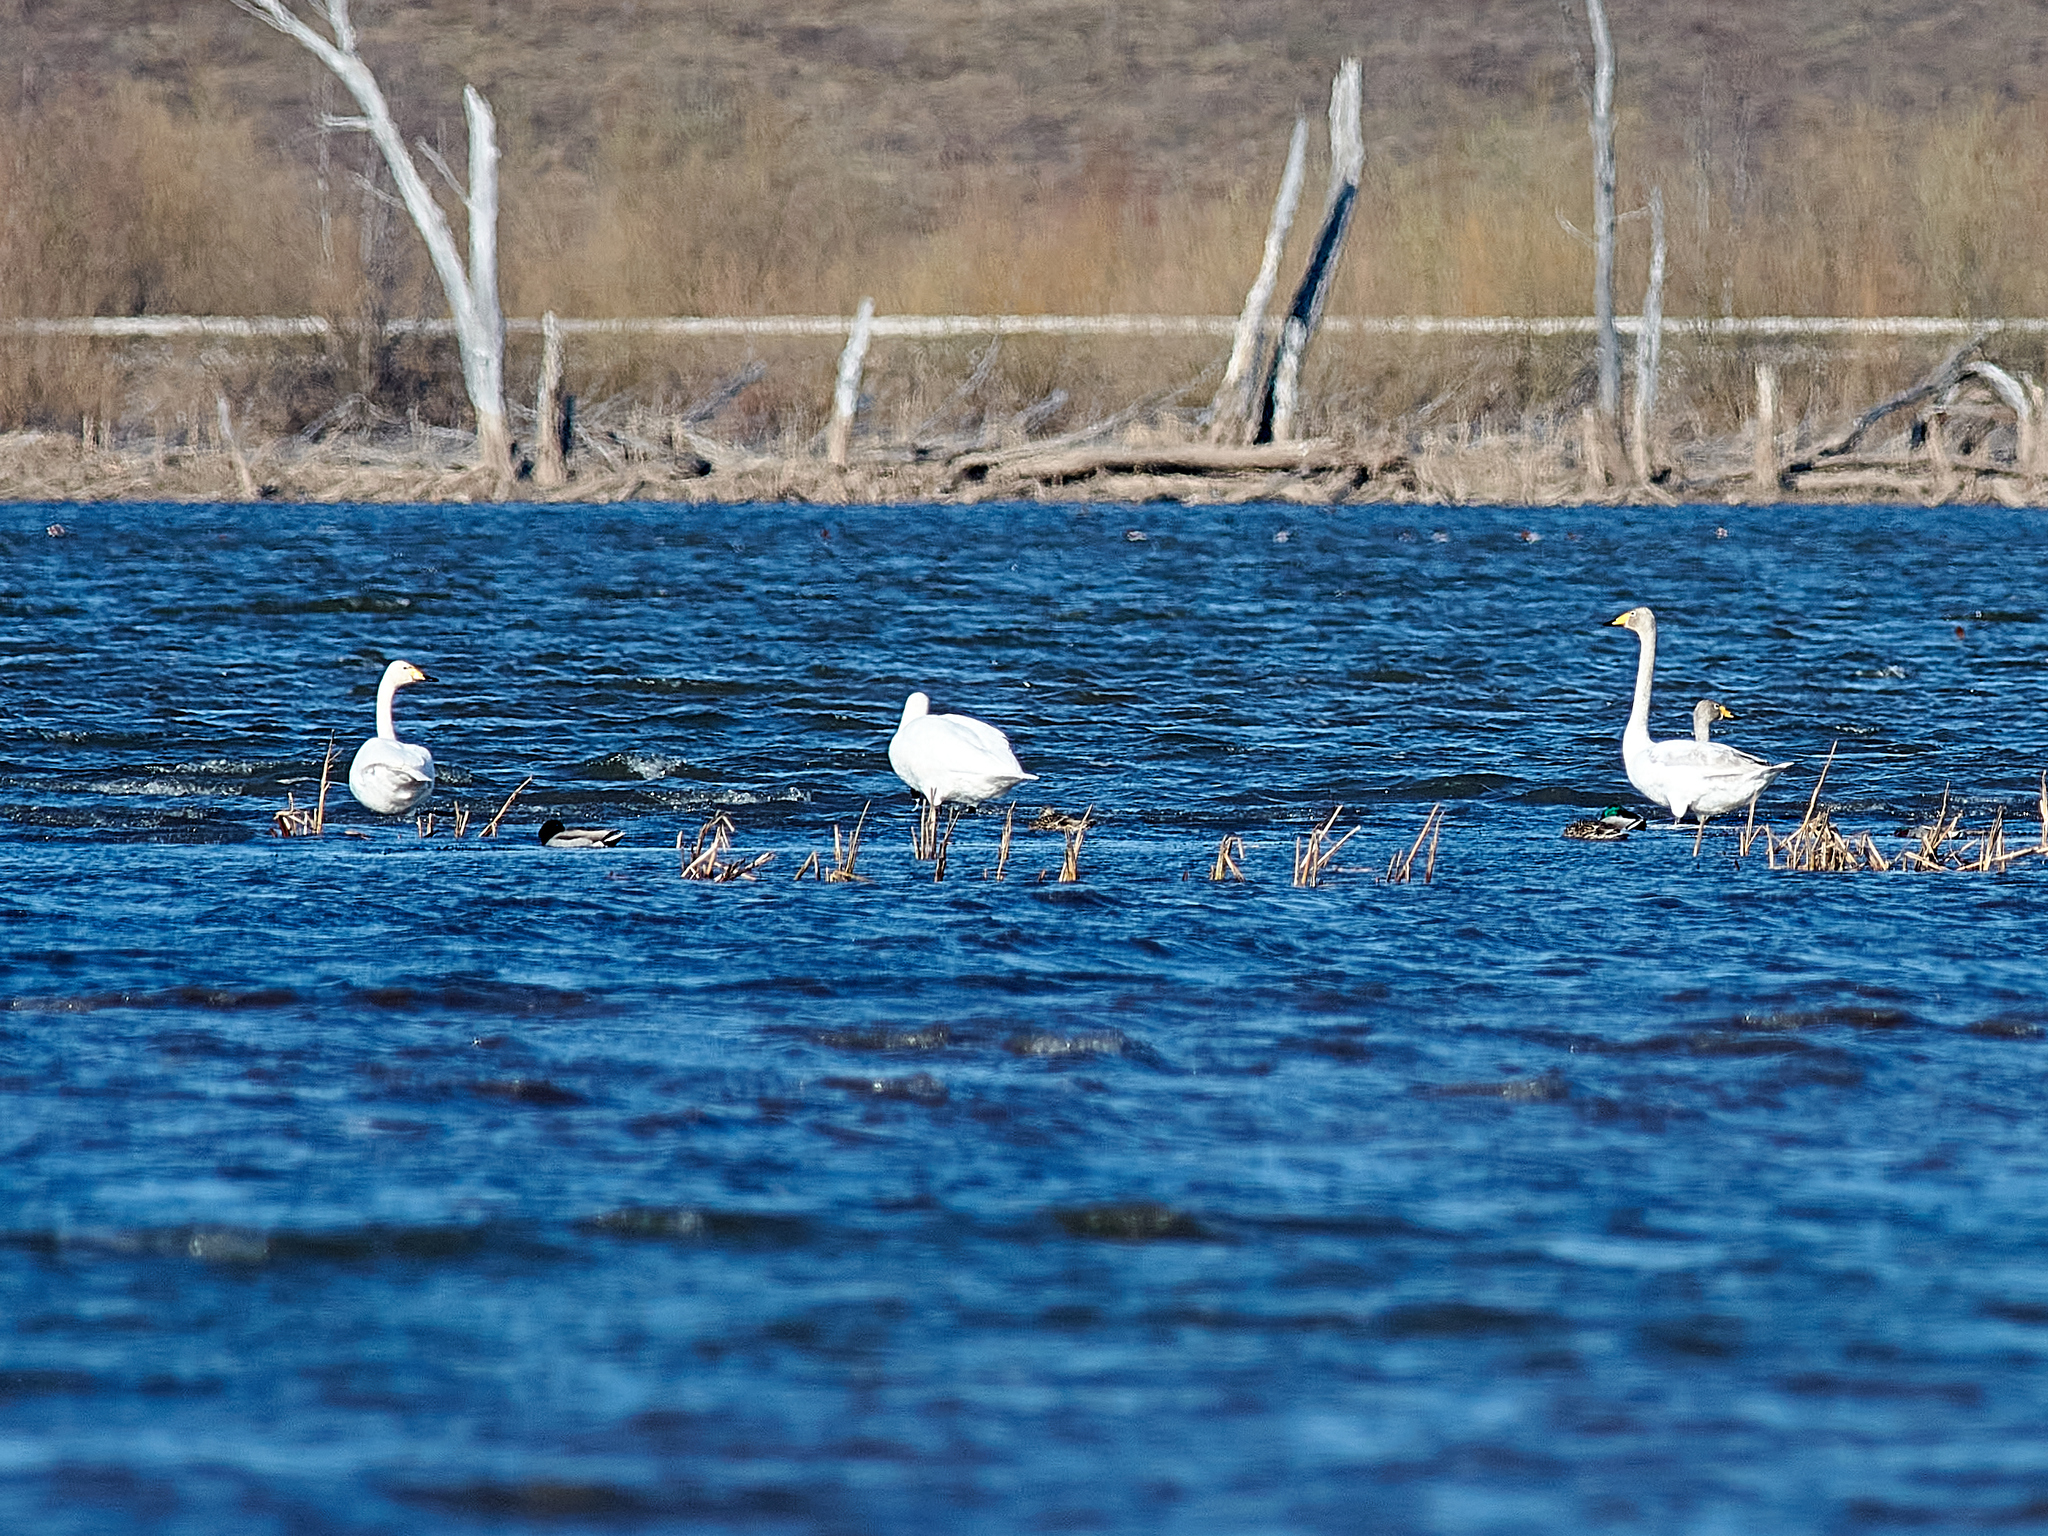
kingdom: Animalia
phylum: Chordata
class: Aves
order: Anseriformes
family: Anatidae
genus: Cygnus
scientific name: Cygnus cygnus
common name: Whooper swan
